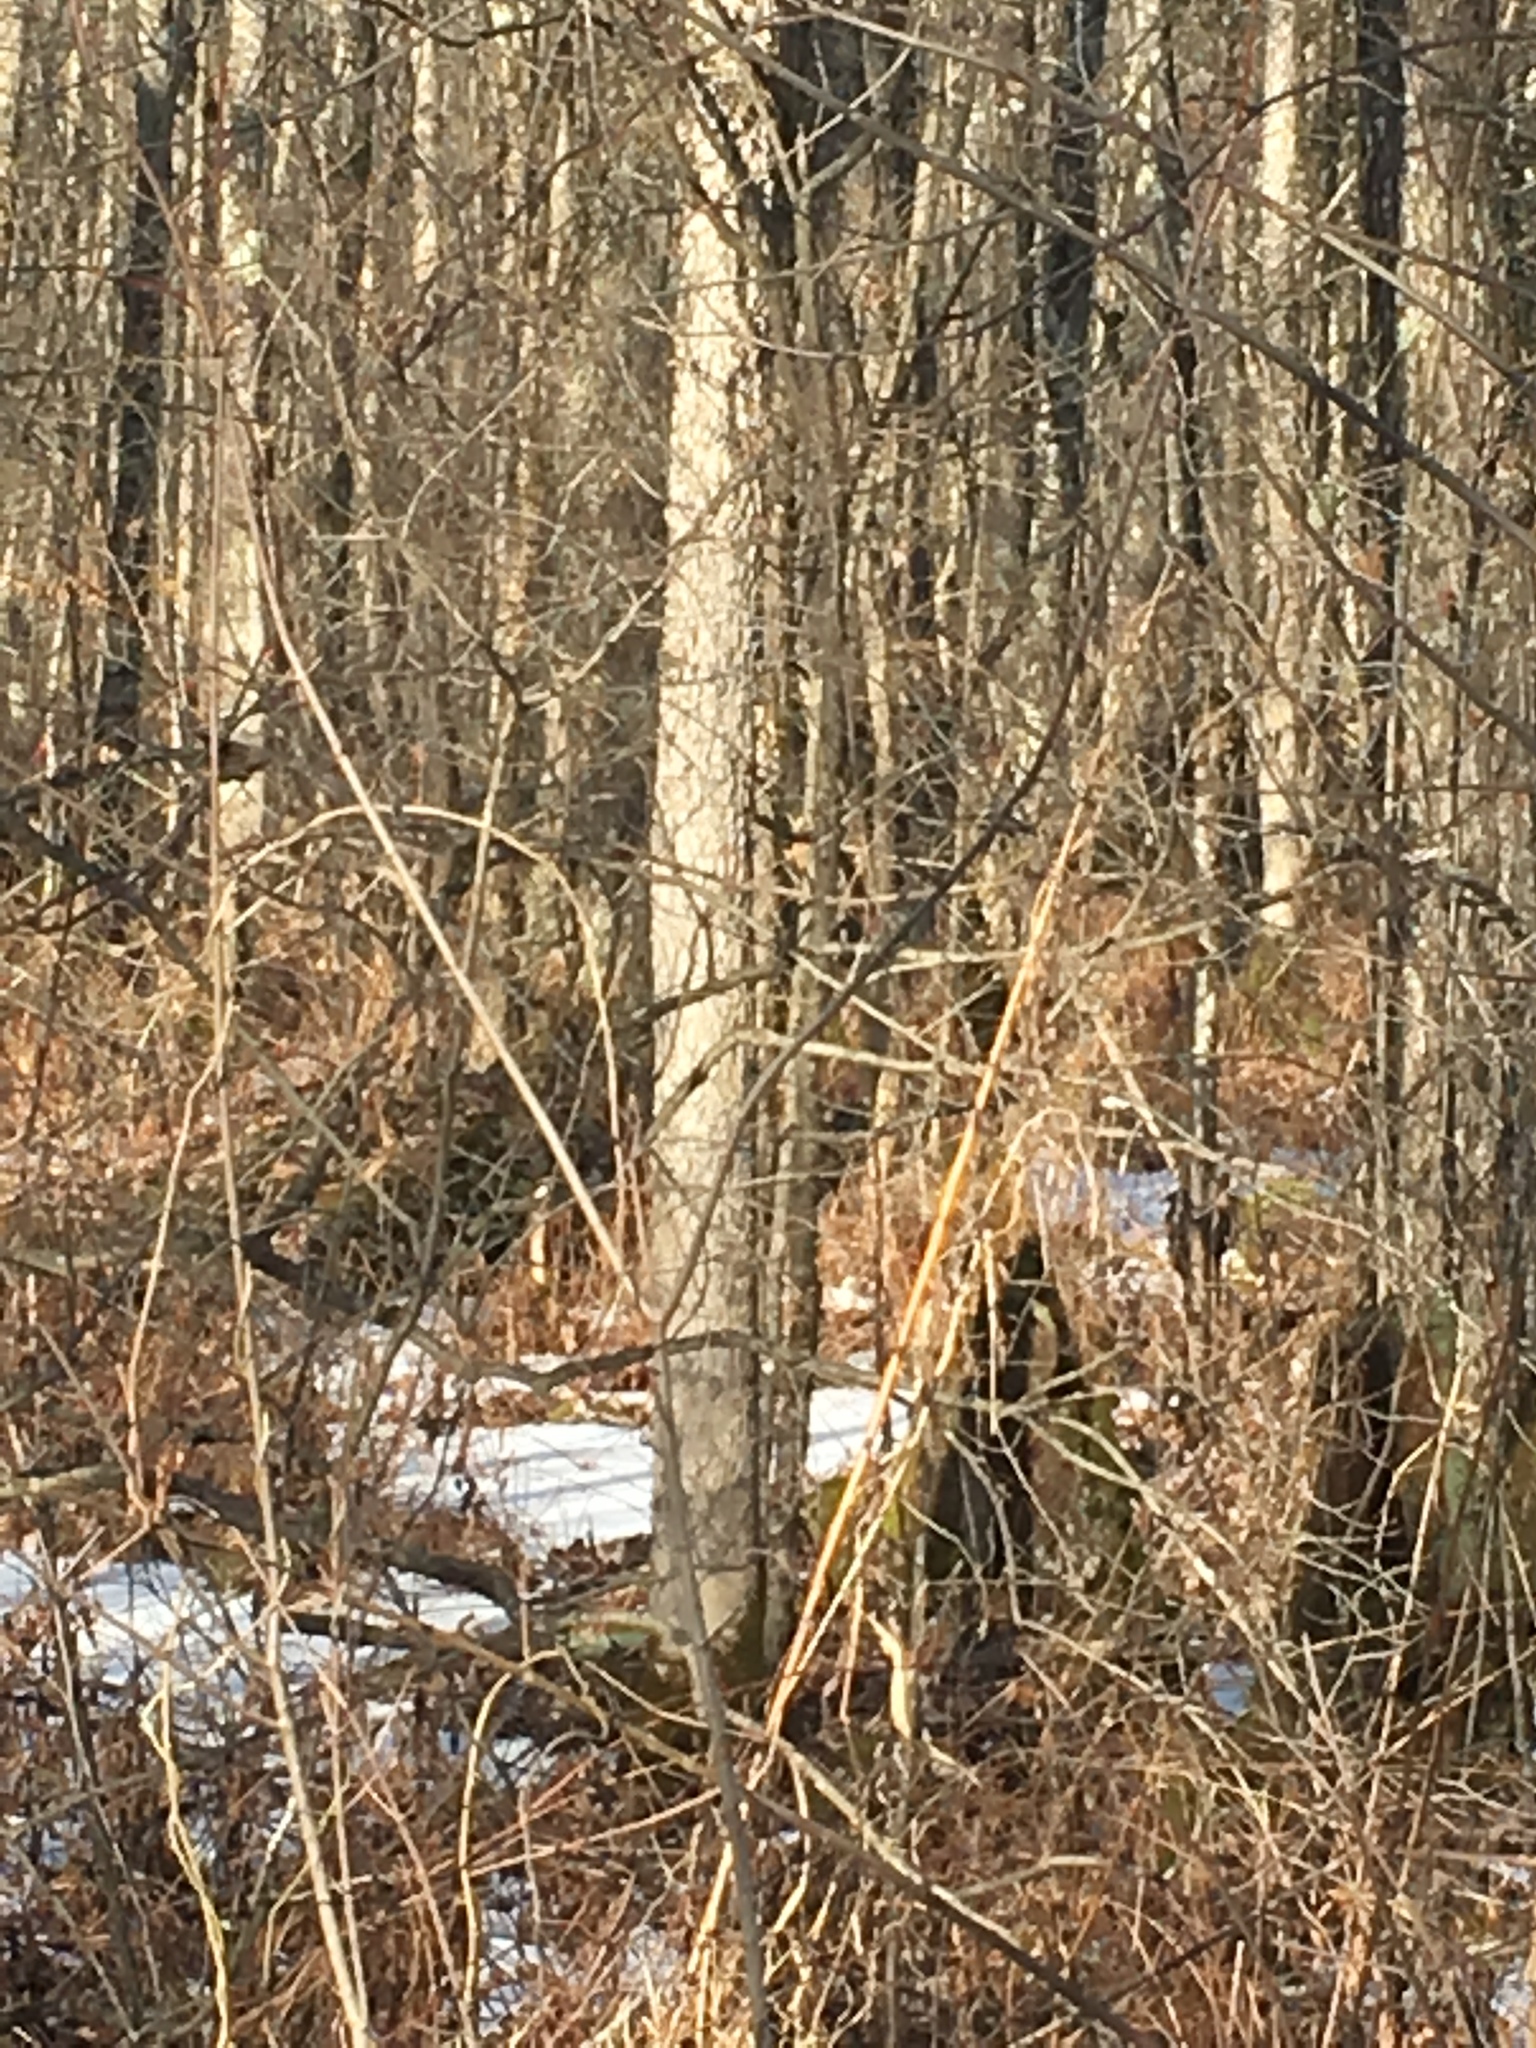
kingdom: Plantae
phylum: Tracheophyta
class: Magnoliopsida
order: Lamiales
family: Oleaceae
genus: Fraxinus
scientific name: Fraxinus nigra
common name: Black ash
